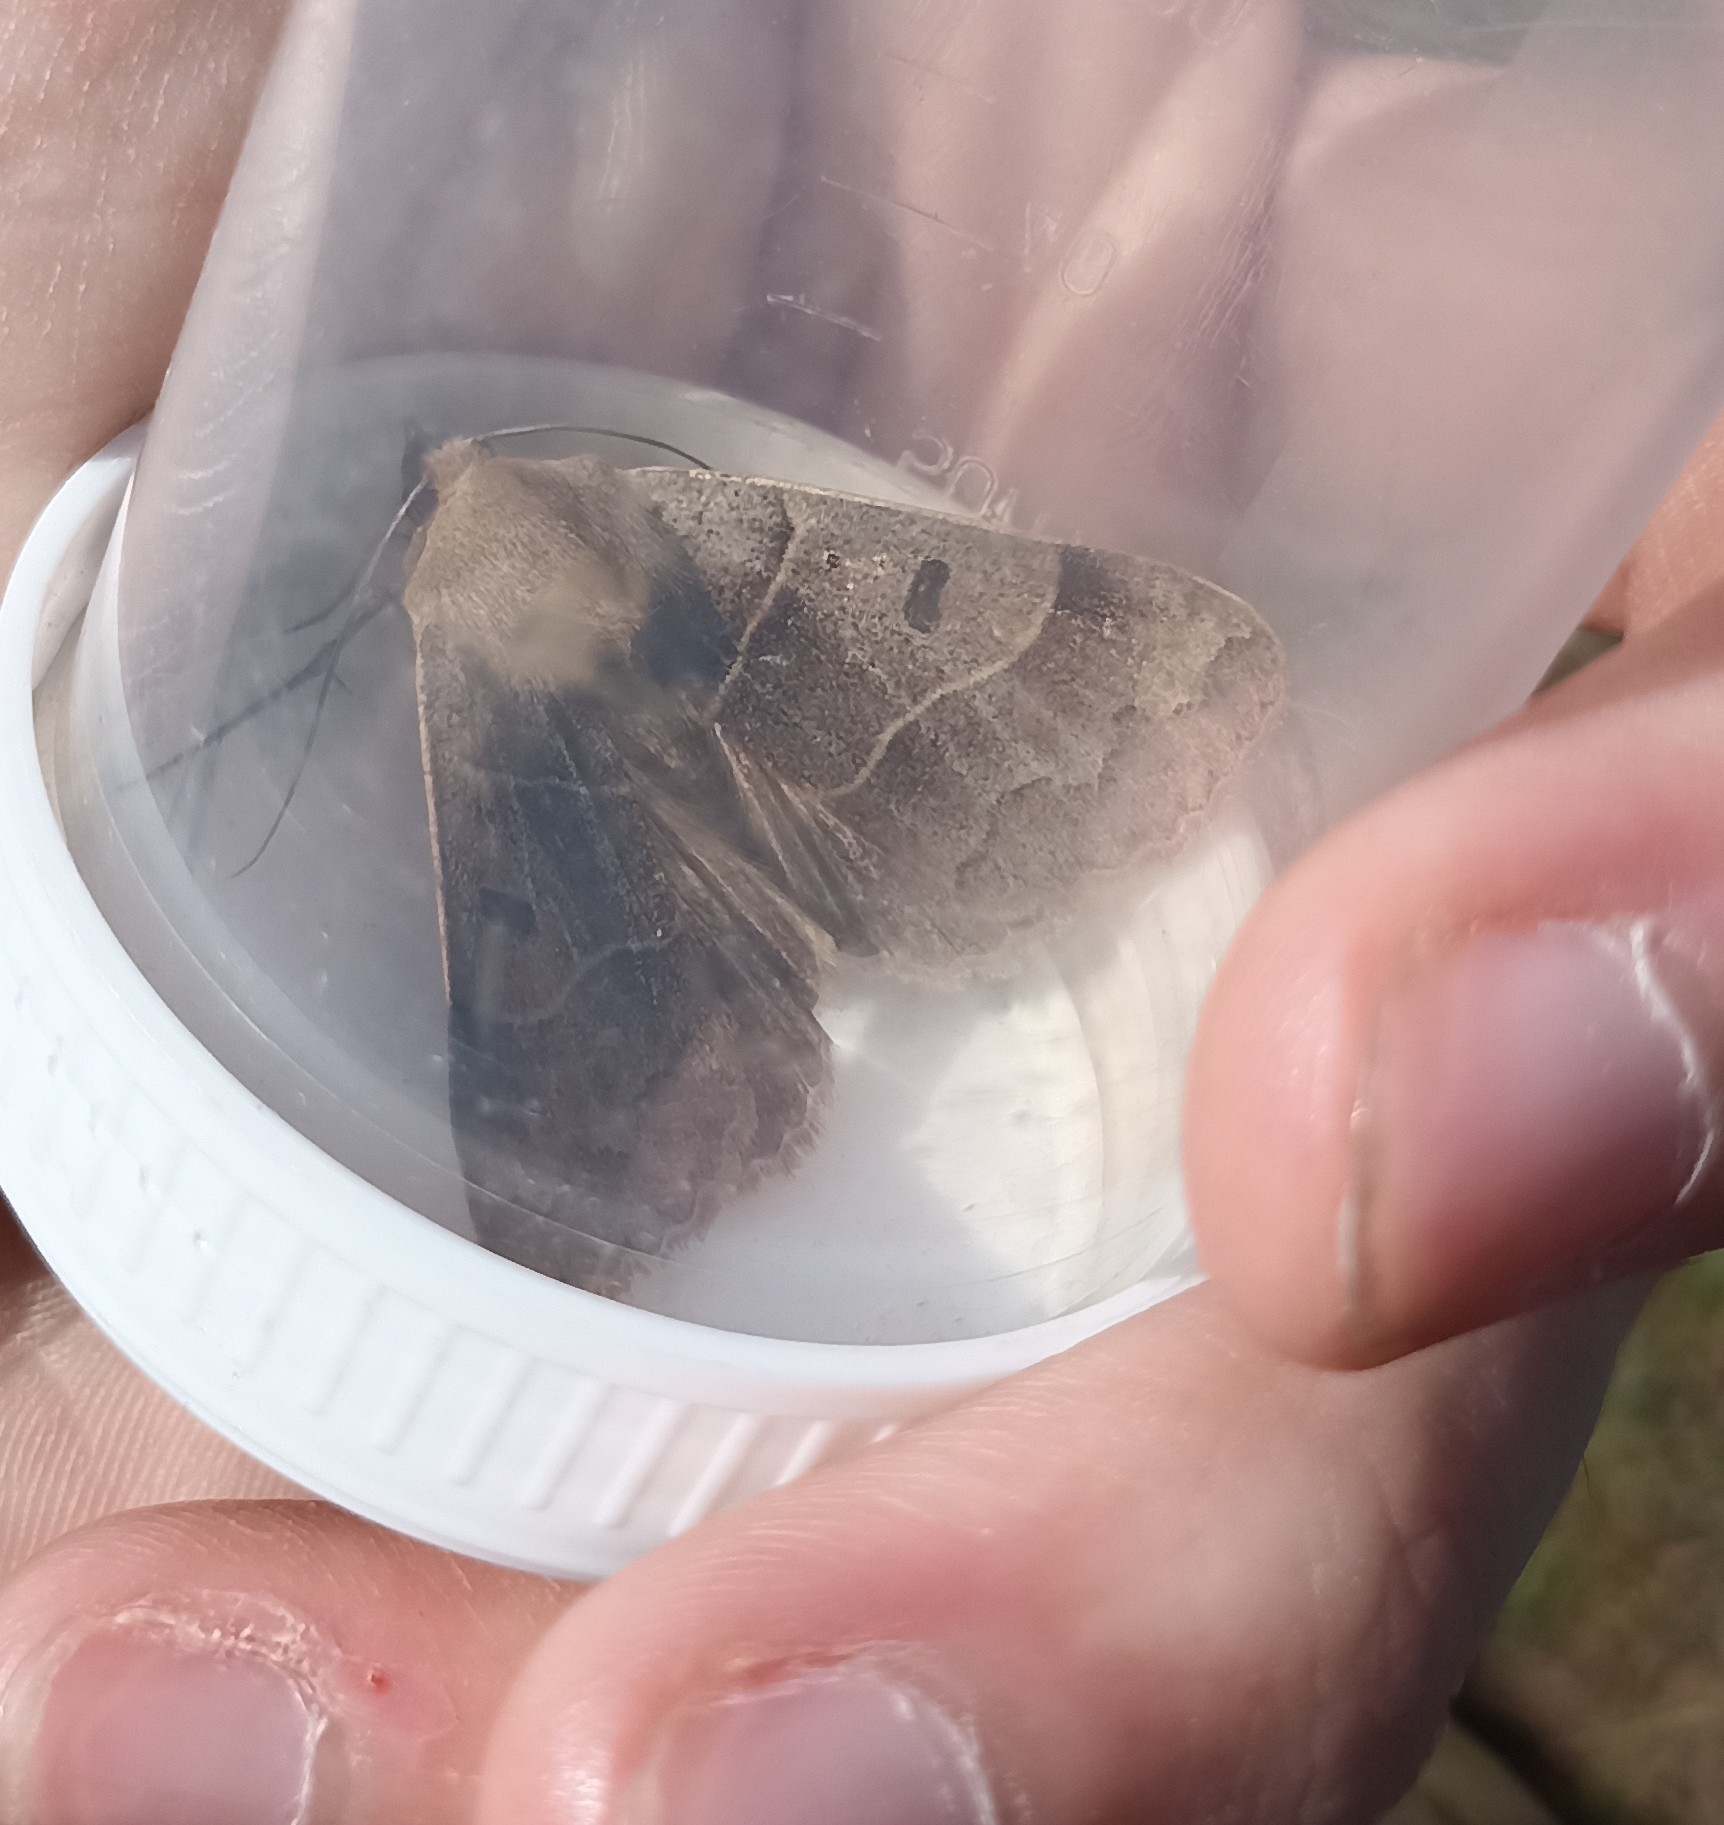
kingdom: Animalia
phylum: Arthropoda
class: Insecta
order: Lepidoptera
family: Erebidae
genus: Minucia
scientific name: Minucia lunaris
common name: Lunar double-stripe
